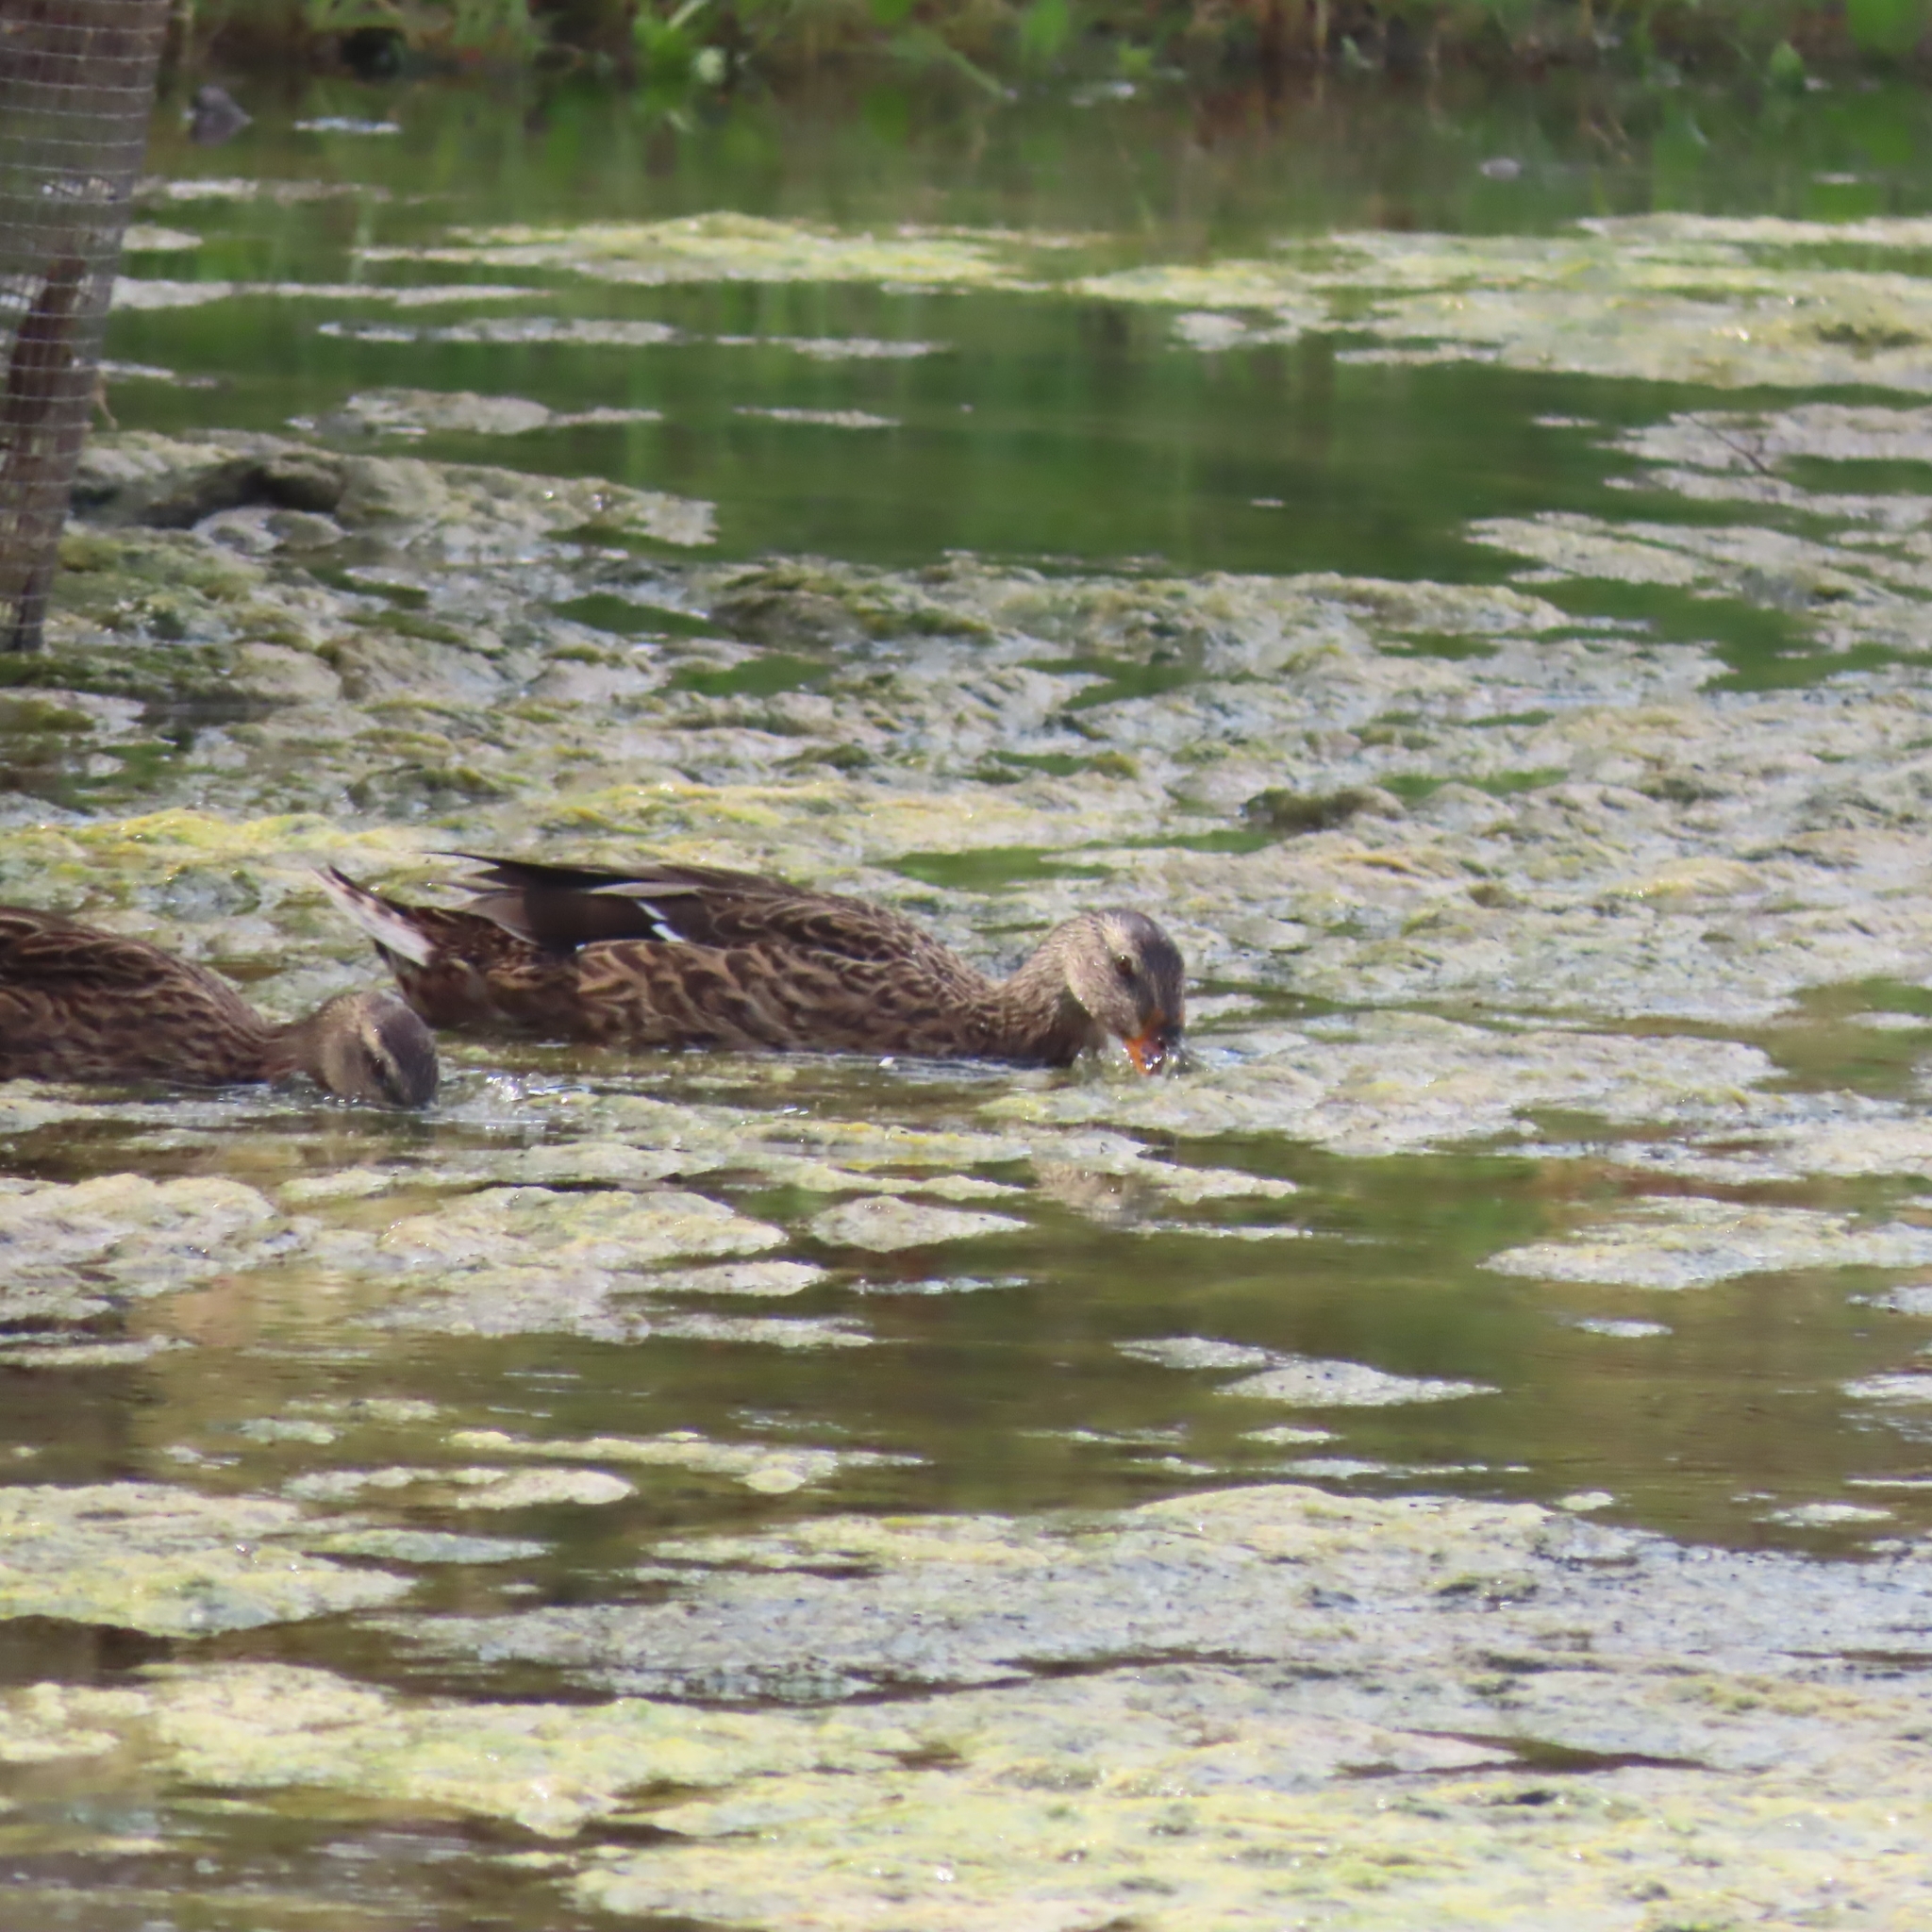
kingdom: Animalia
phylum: Chordata
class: Aves
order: Anseriformes
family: Anatidae
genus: Anas
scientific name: Anas platyrhynchos
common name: Mallard
